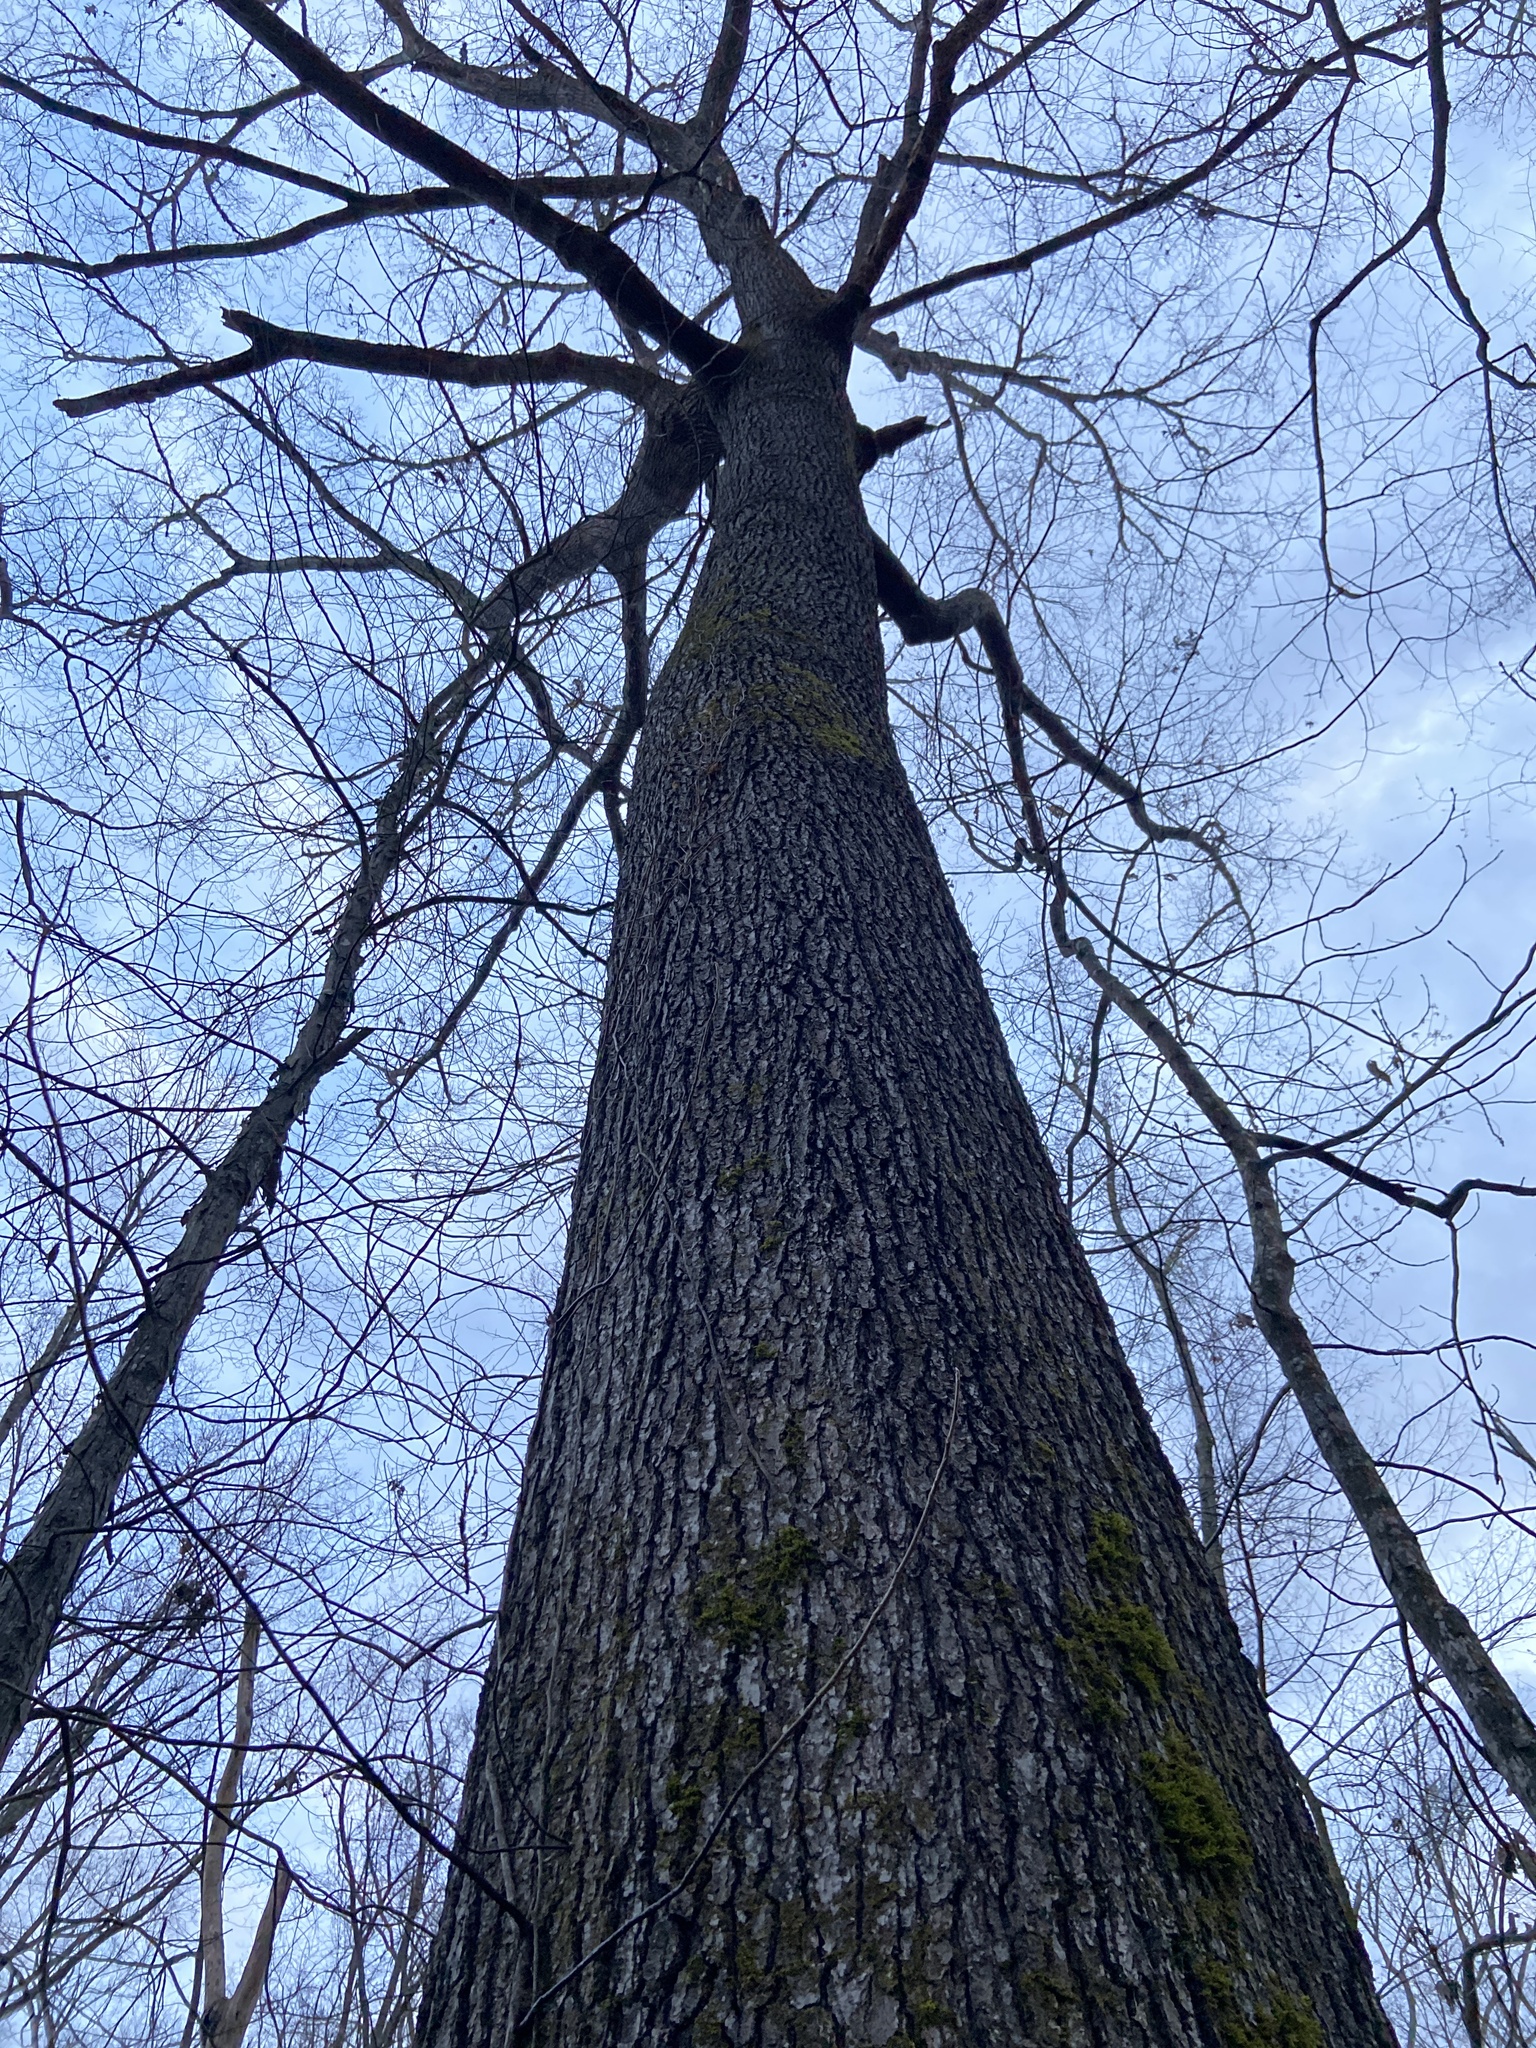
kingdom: Plantae
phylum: Tracheophyta
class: Magnoliopsida
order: Fagales
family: Fagaceae
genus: Quercus
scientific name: Quercus pagoda
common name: Cherrybark oak
